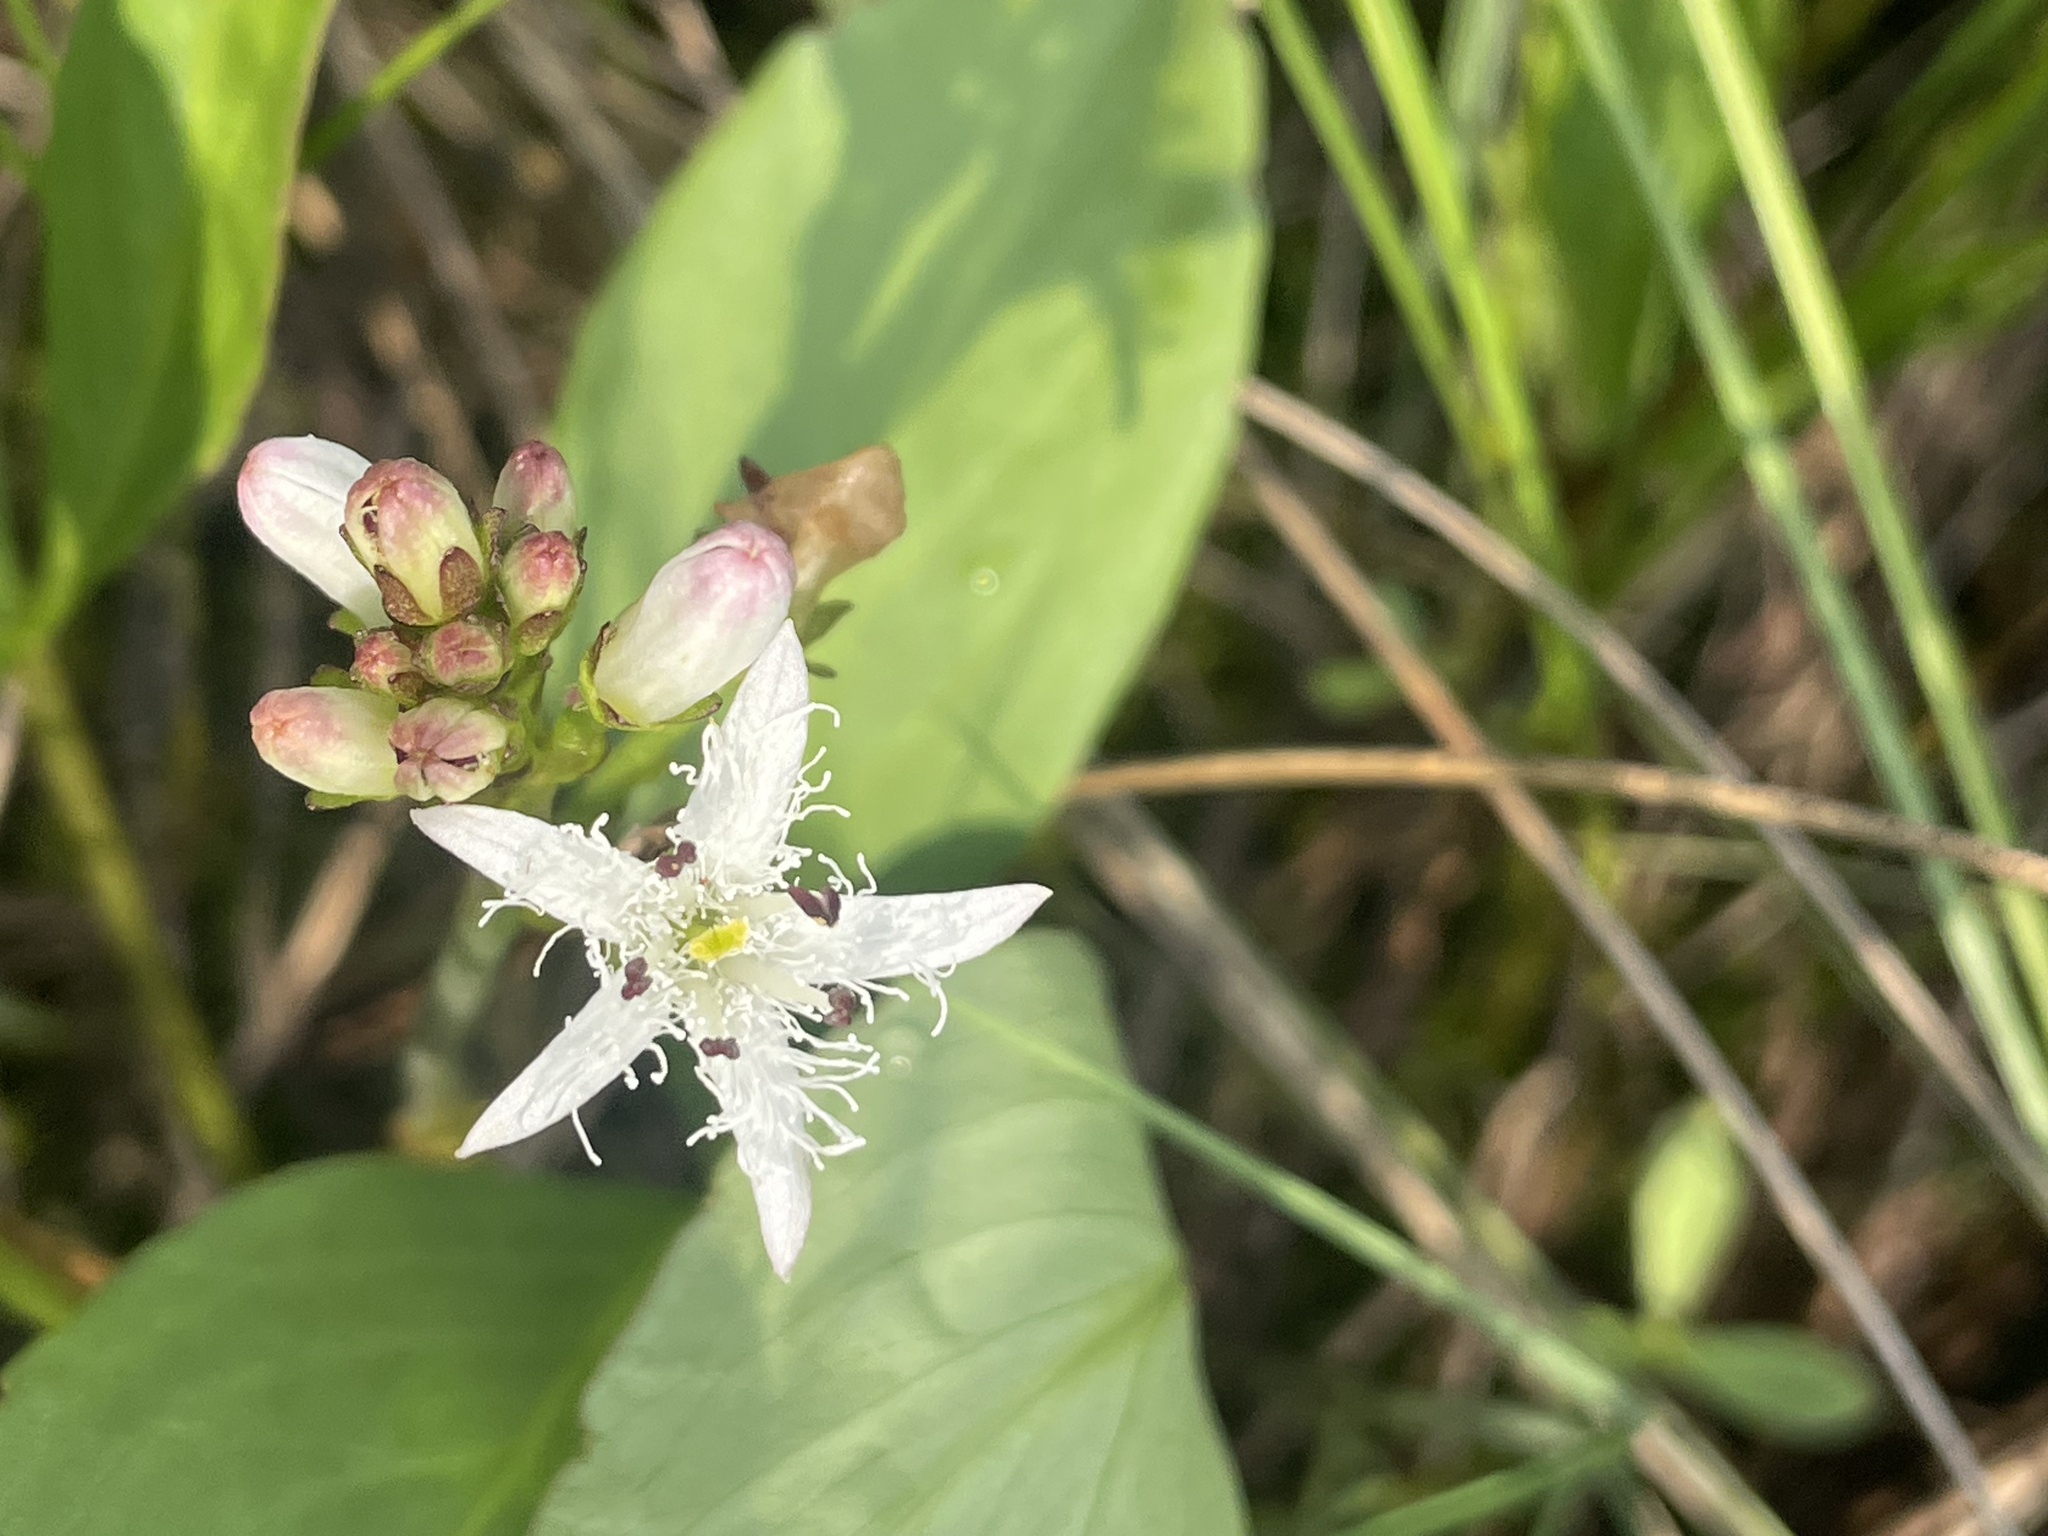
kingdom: Plantae
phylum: Tracheophyta
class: Magnoliopsida
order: Asterales
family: Menyanthaceae
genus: Menyanthes
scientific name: Menyanthes trifoliata
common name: Bogbean
